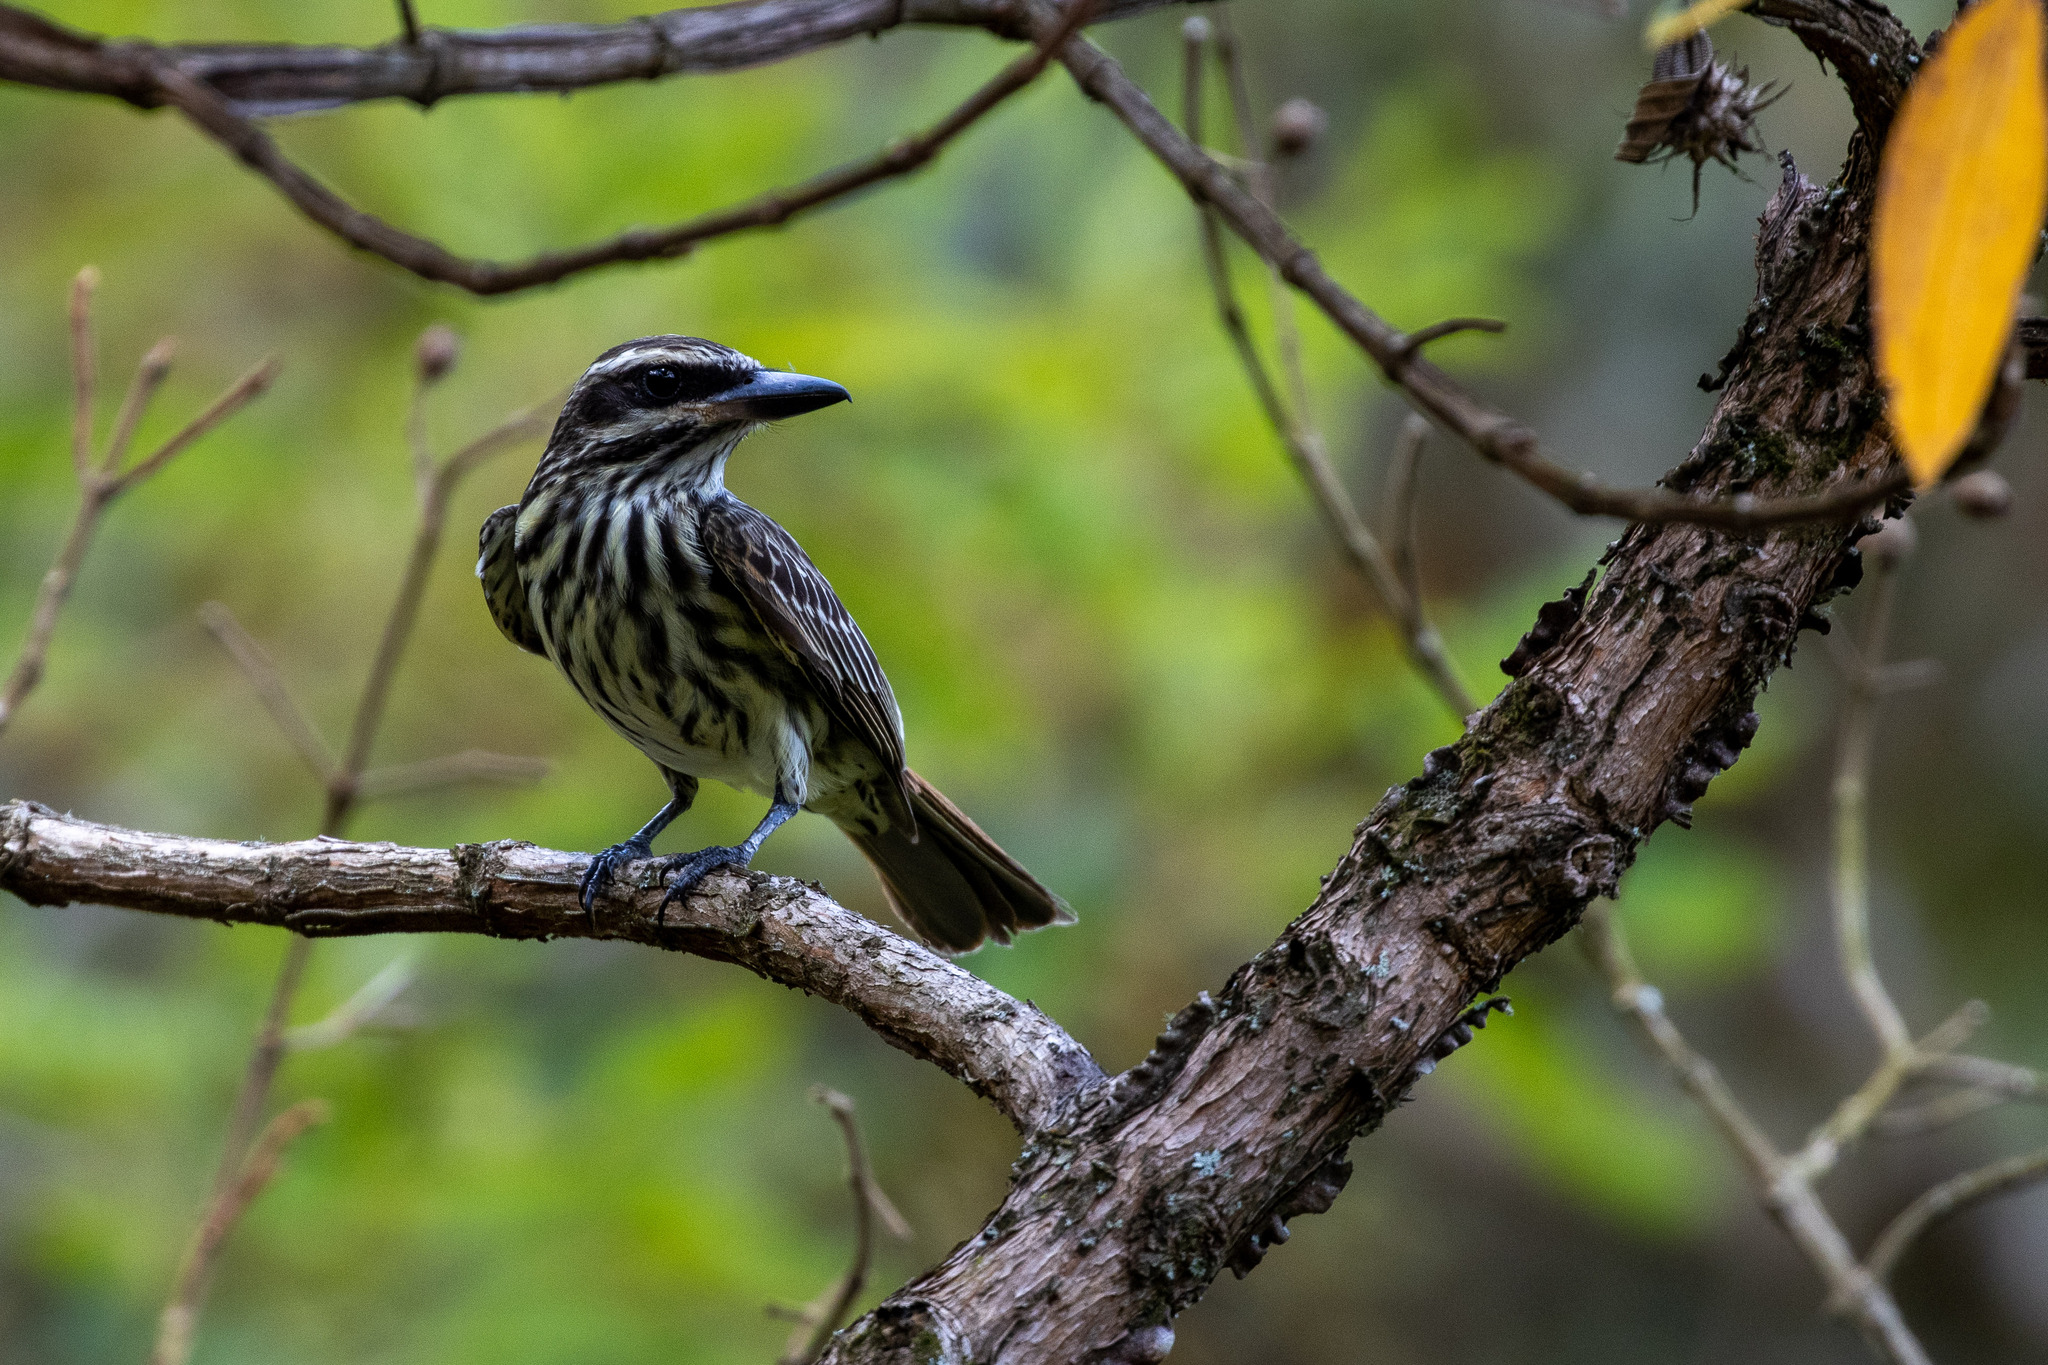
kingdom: Animalia
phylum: Chordata
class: Aves
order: Passeriformes
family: Tyrannidae
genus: Myiodynastes
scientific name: Myiodynastes maculatus
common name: Streaked flycatcher
